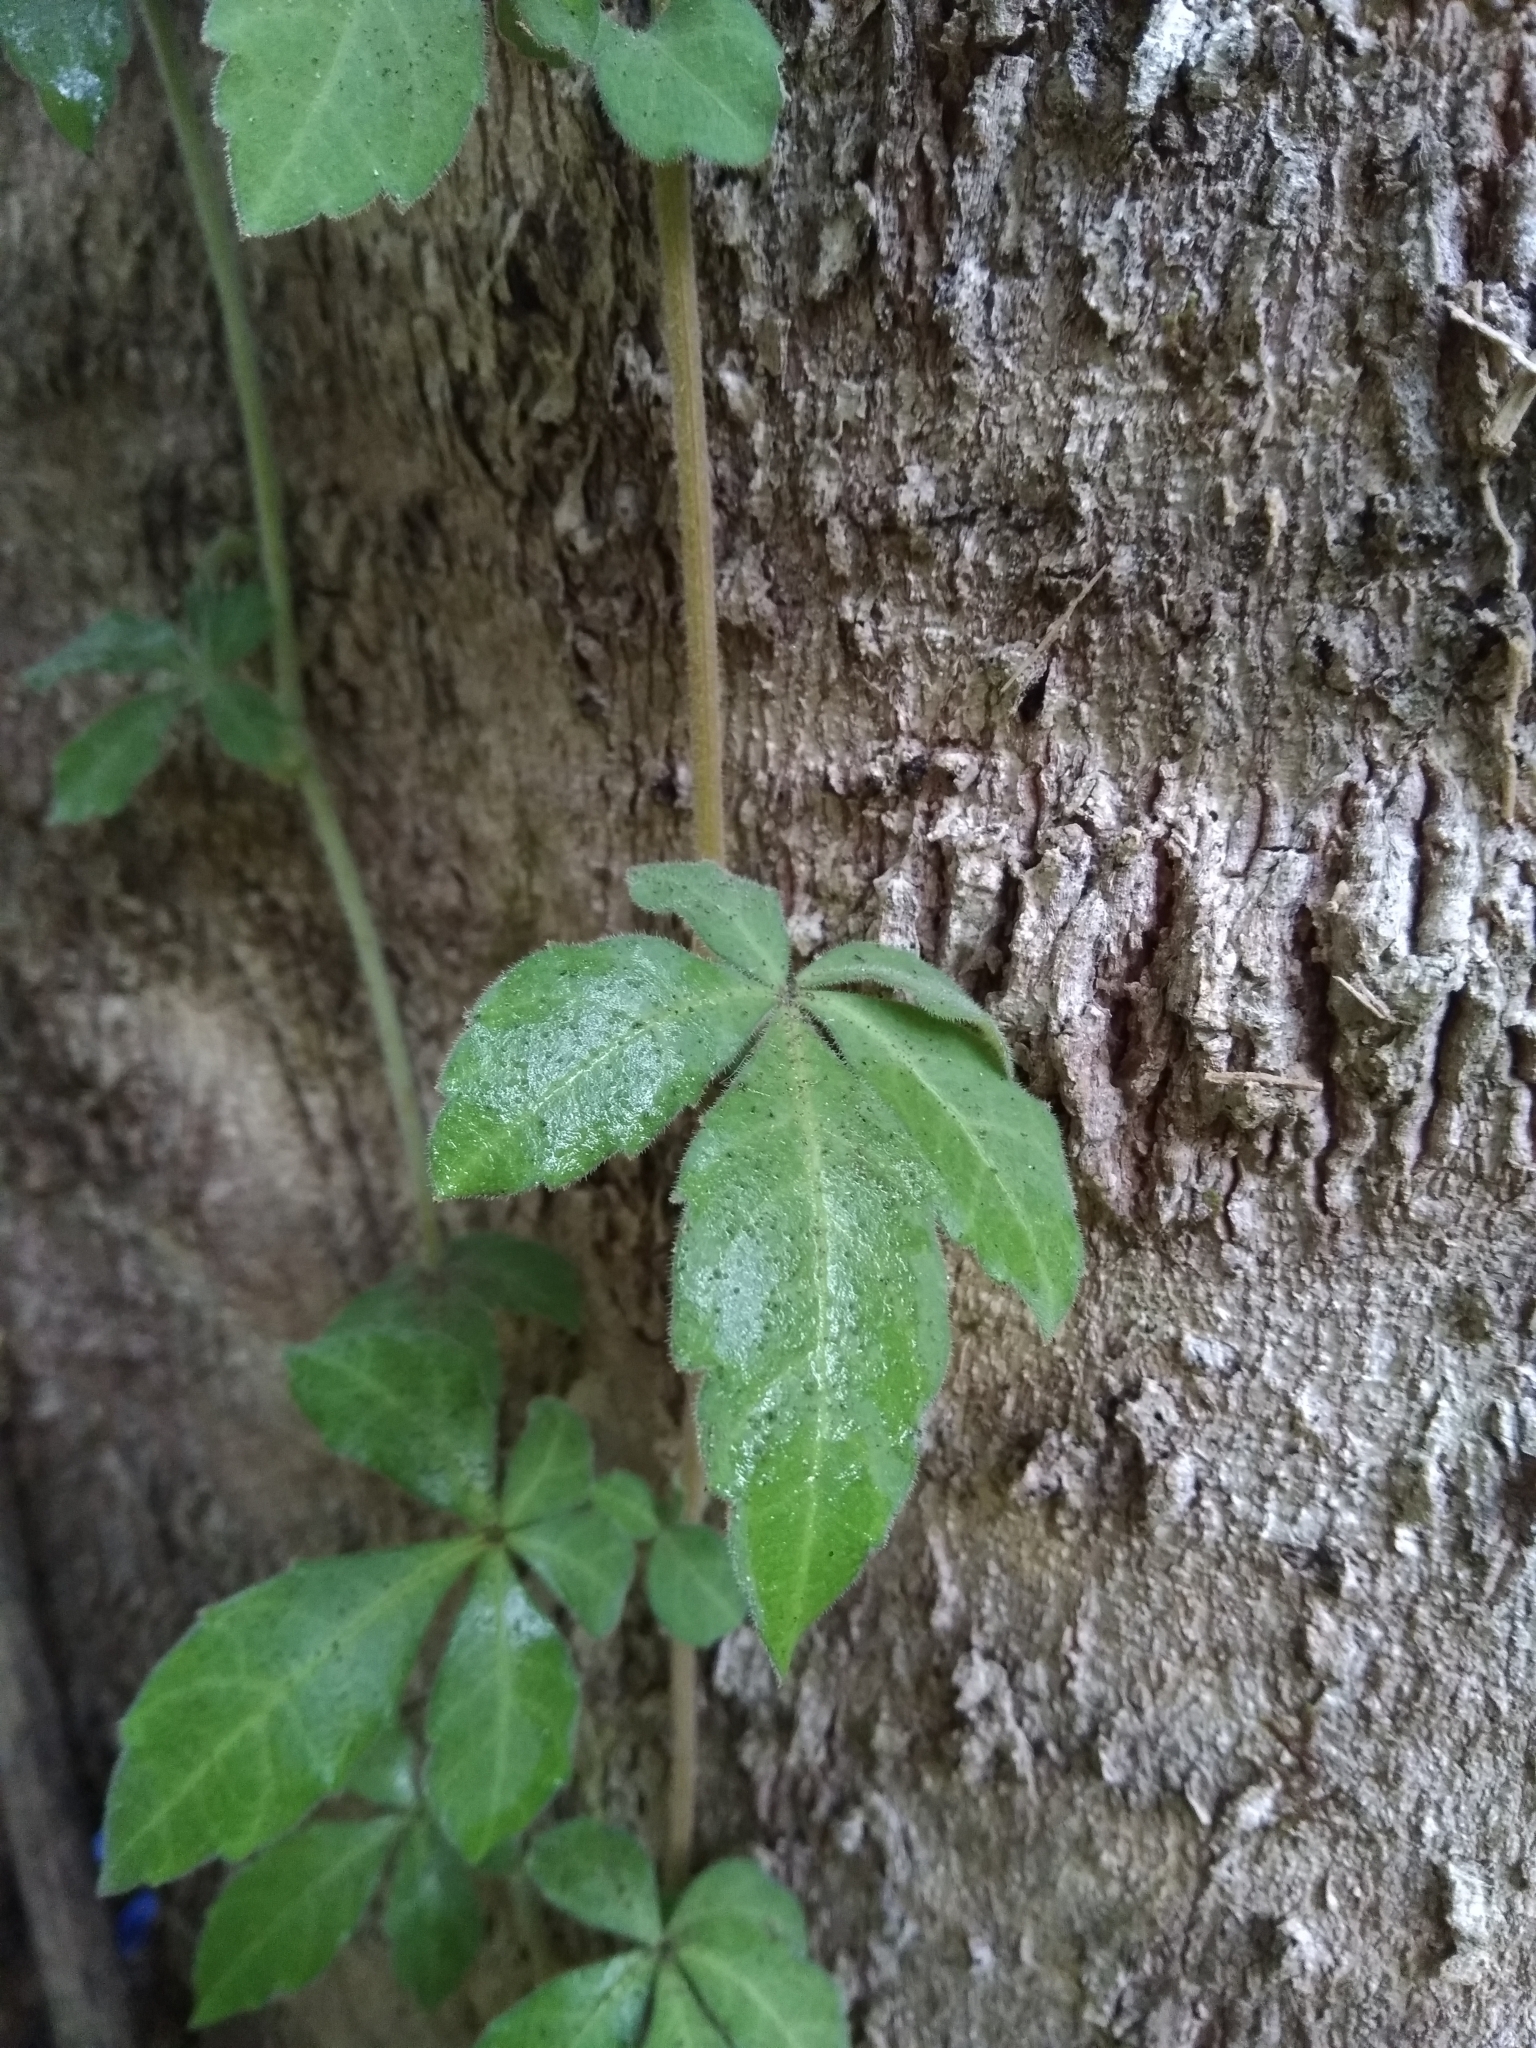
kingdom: Plantae
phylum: Tracheophyta
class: Magnoliopsida
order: Vitales
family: Vitaceae
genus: Clematicissus
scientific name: Clematicissus striata
